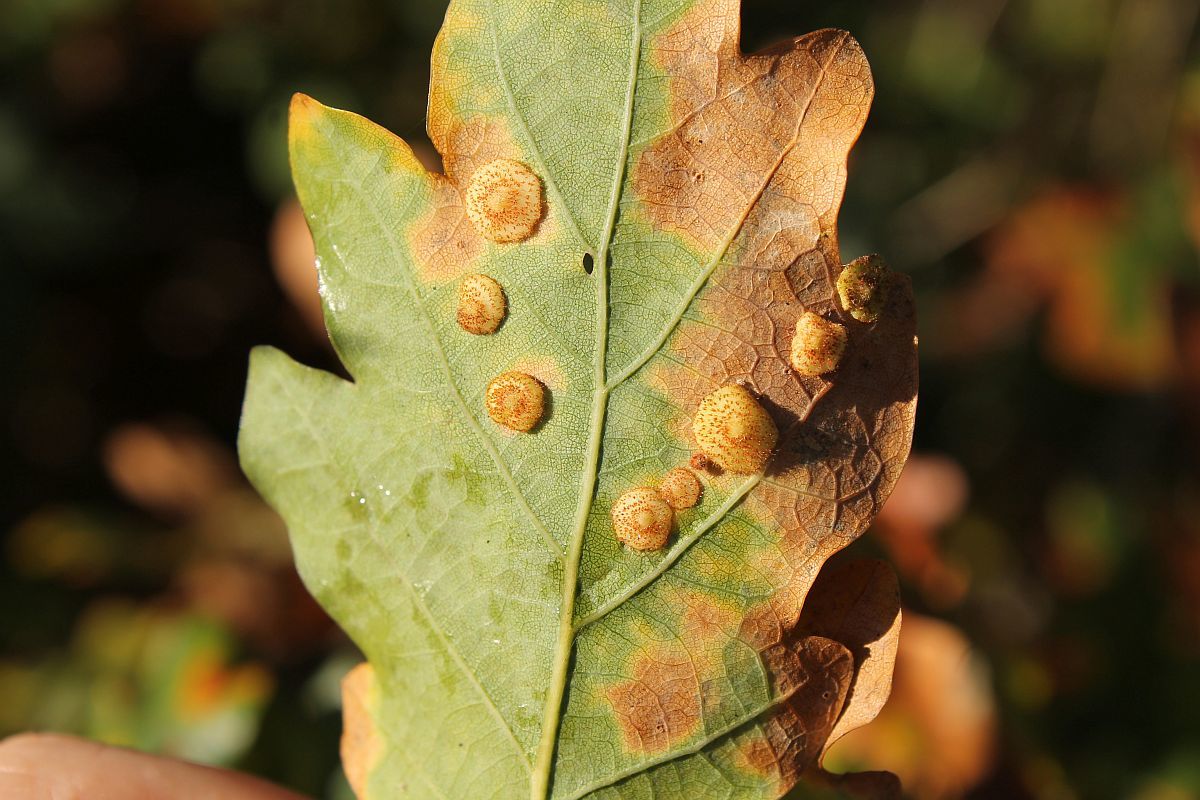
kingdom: Animalia
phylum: Arthropoda
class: Insecta
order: Hymenoptera
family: Cynipidae
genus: Neuroterus
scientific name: Neuroterus quercusbaccarum
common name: Common spangle gall
